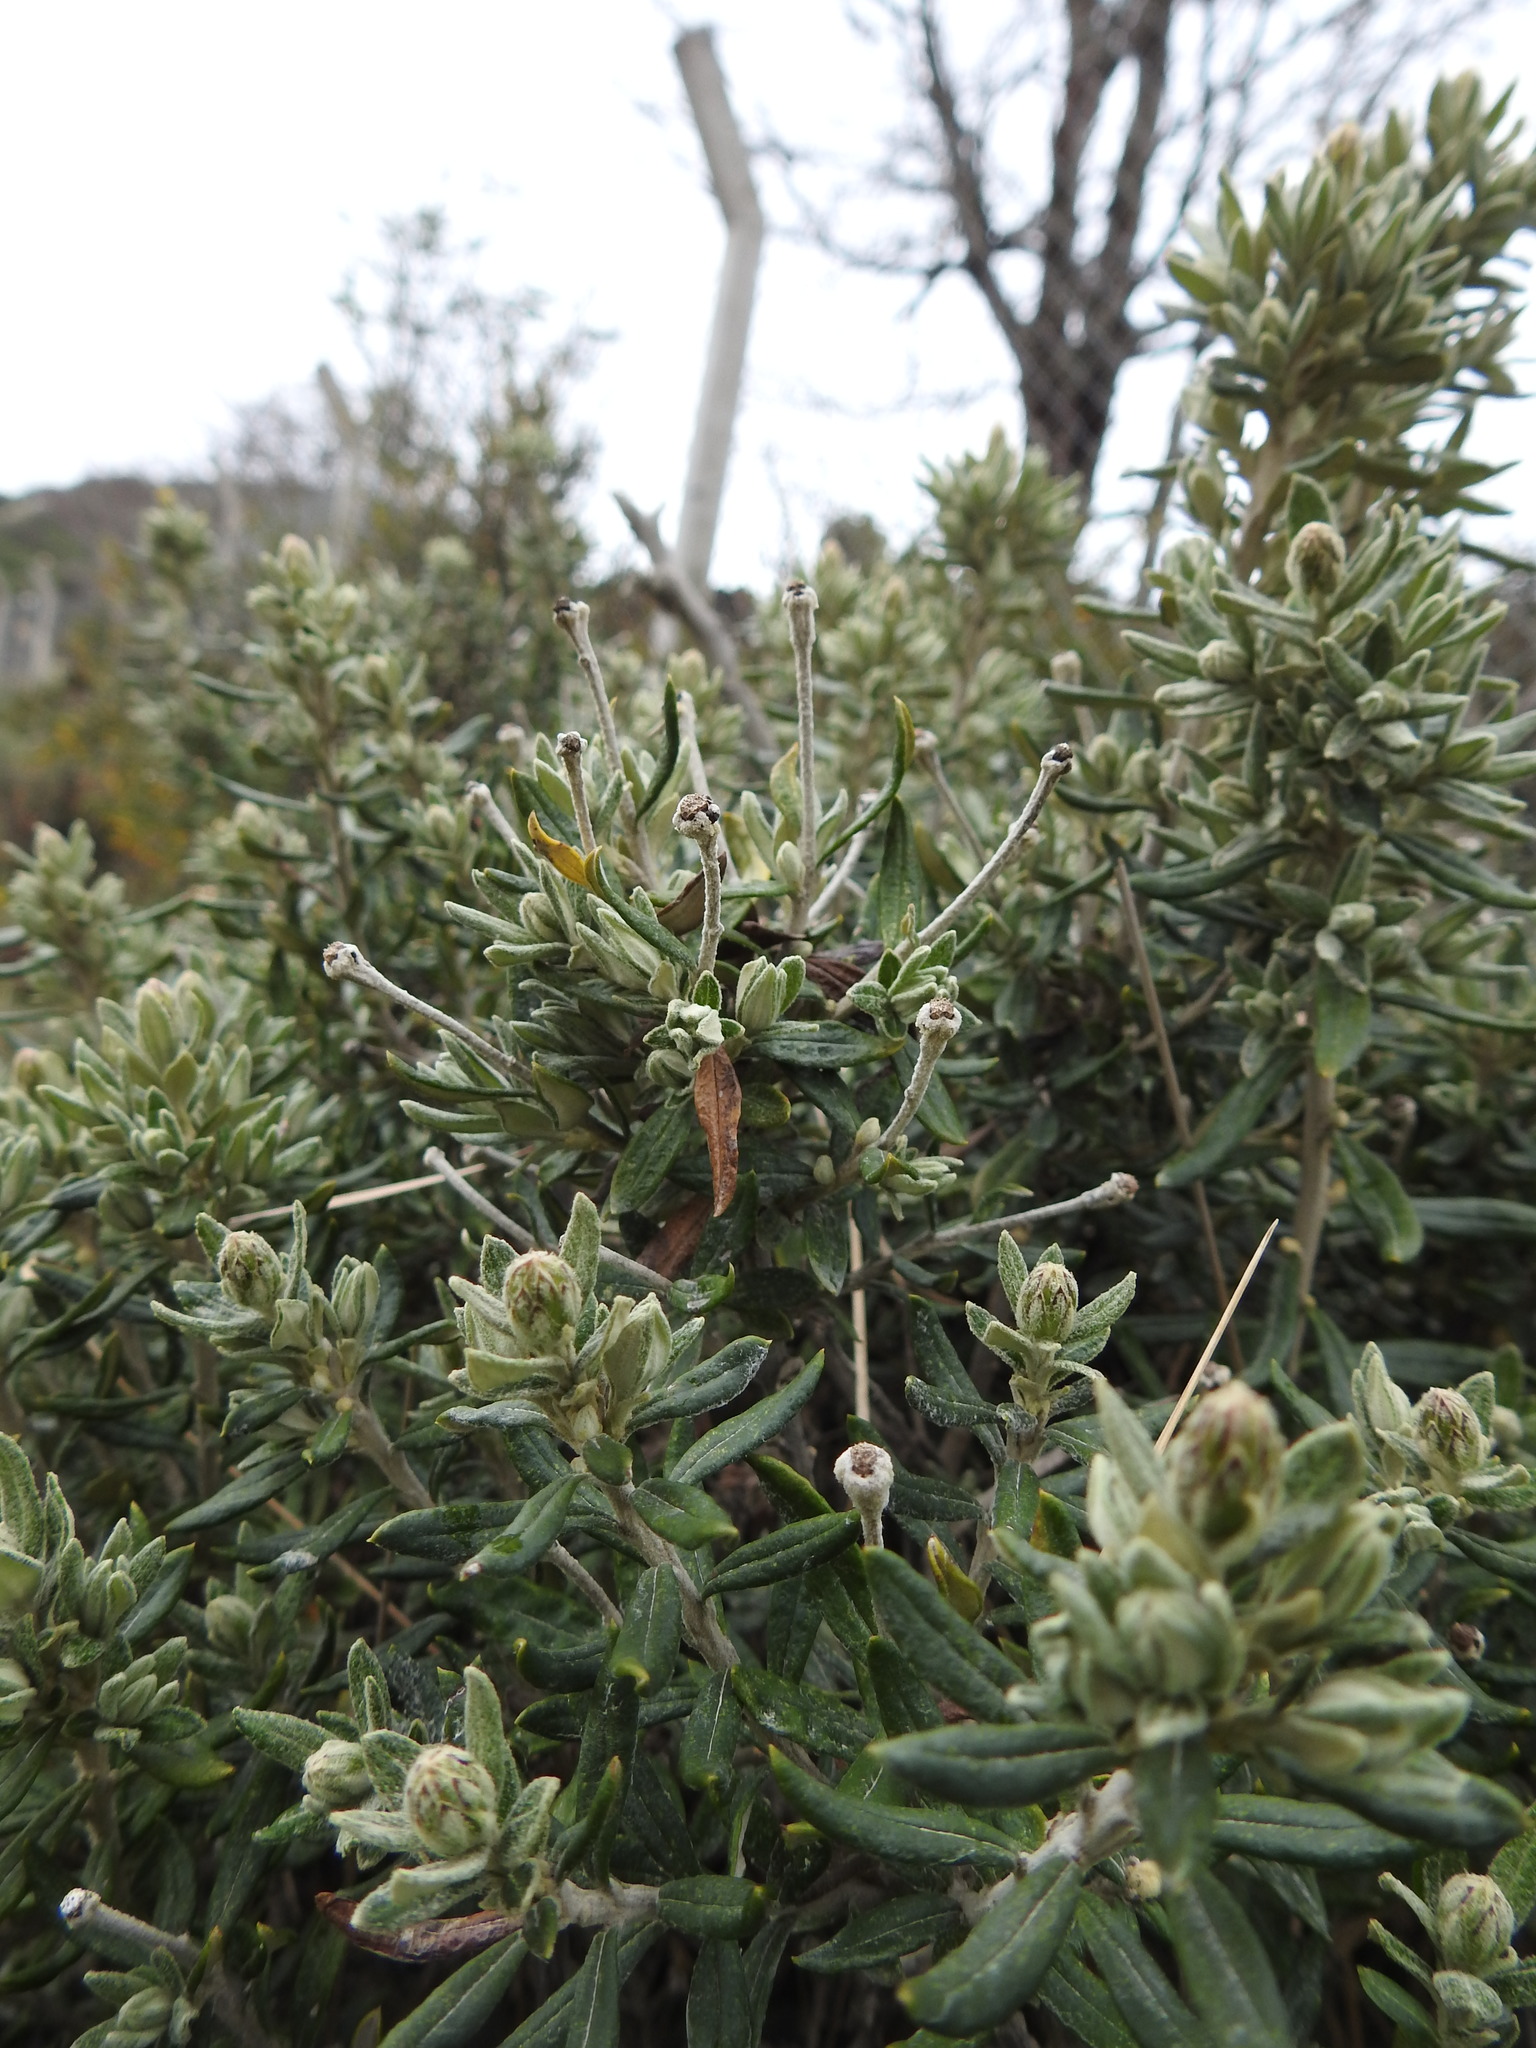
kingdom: Plantae
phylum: Tracheophyta
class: Magnoliopsida
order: Asterales
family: Asteraceae
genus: Chiliotrichum
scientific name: Chiliotrichum diffusum
